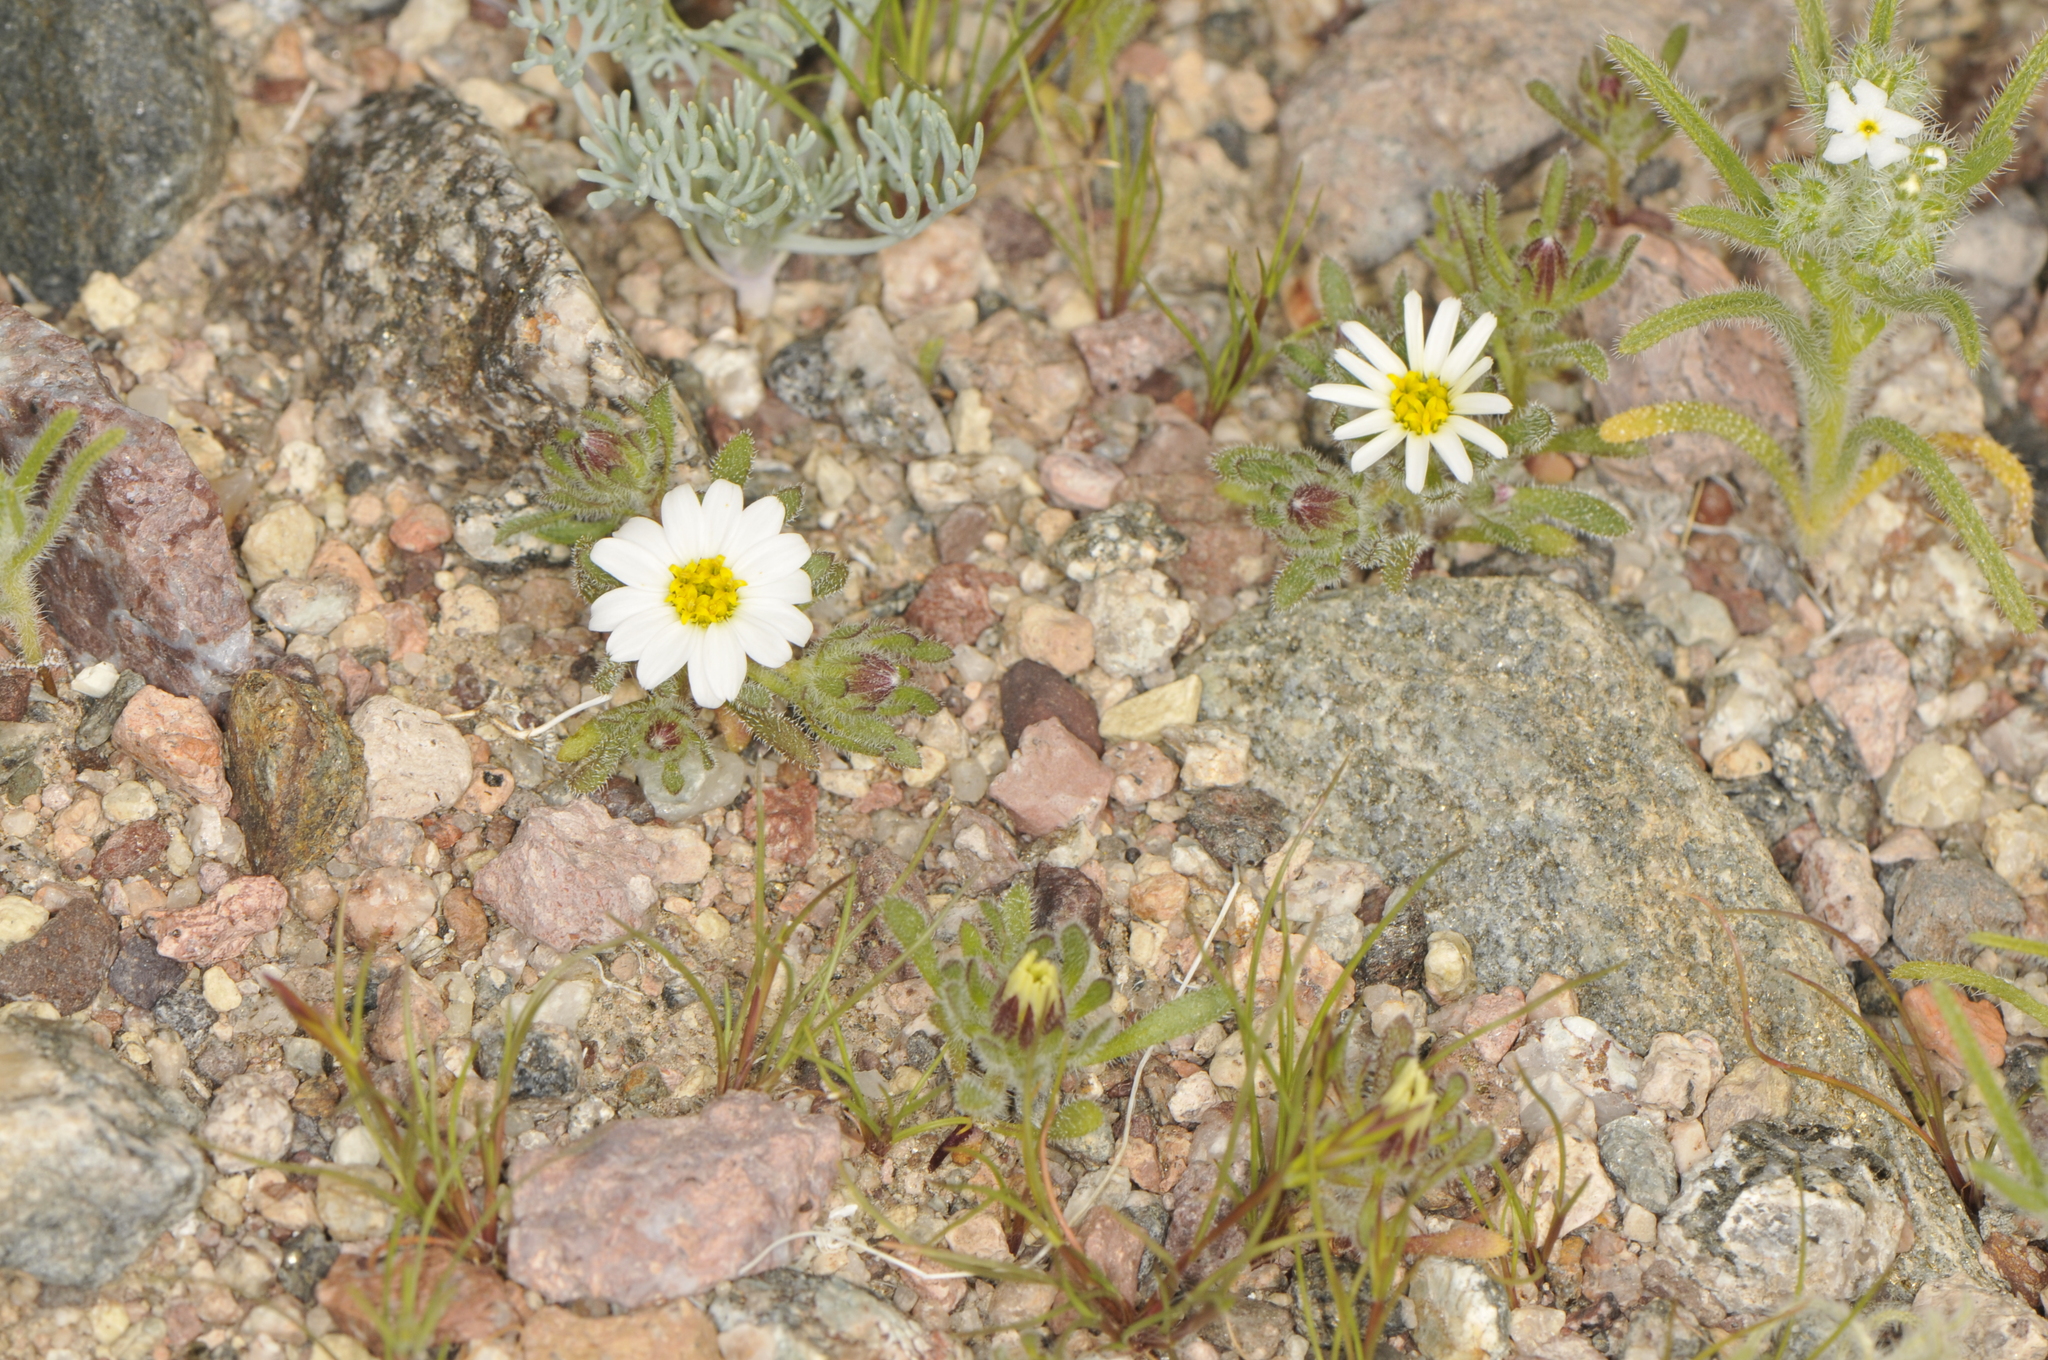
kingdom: Plantae
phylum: Tracheophyta
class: Magnoliopsida
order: Asterales
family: Asteraceae
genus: Monoptilon
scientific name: Monoptilon bellioides
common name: Bristly desertstar
